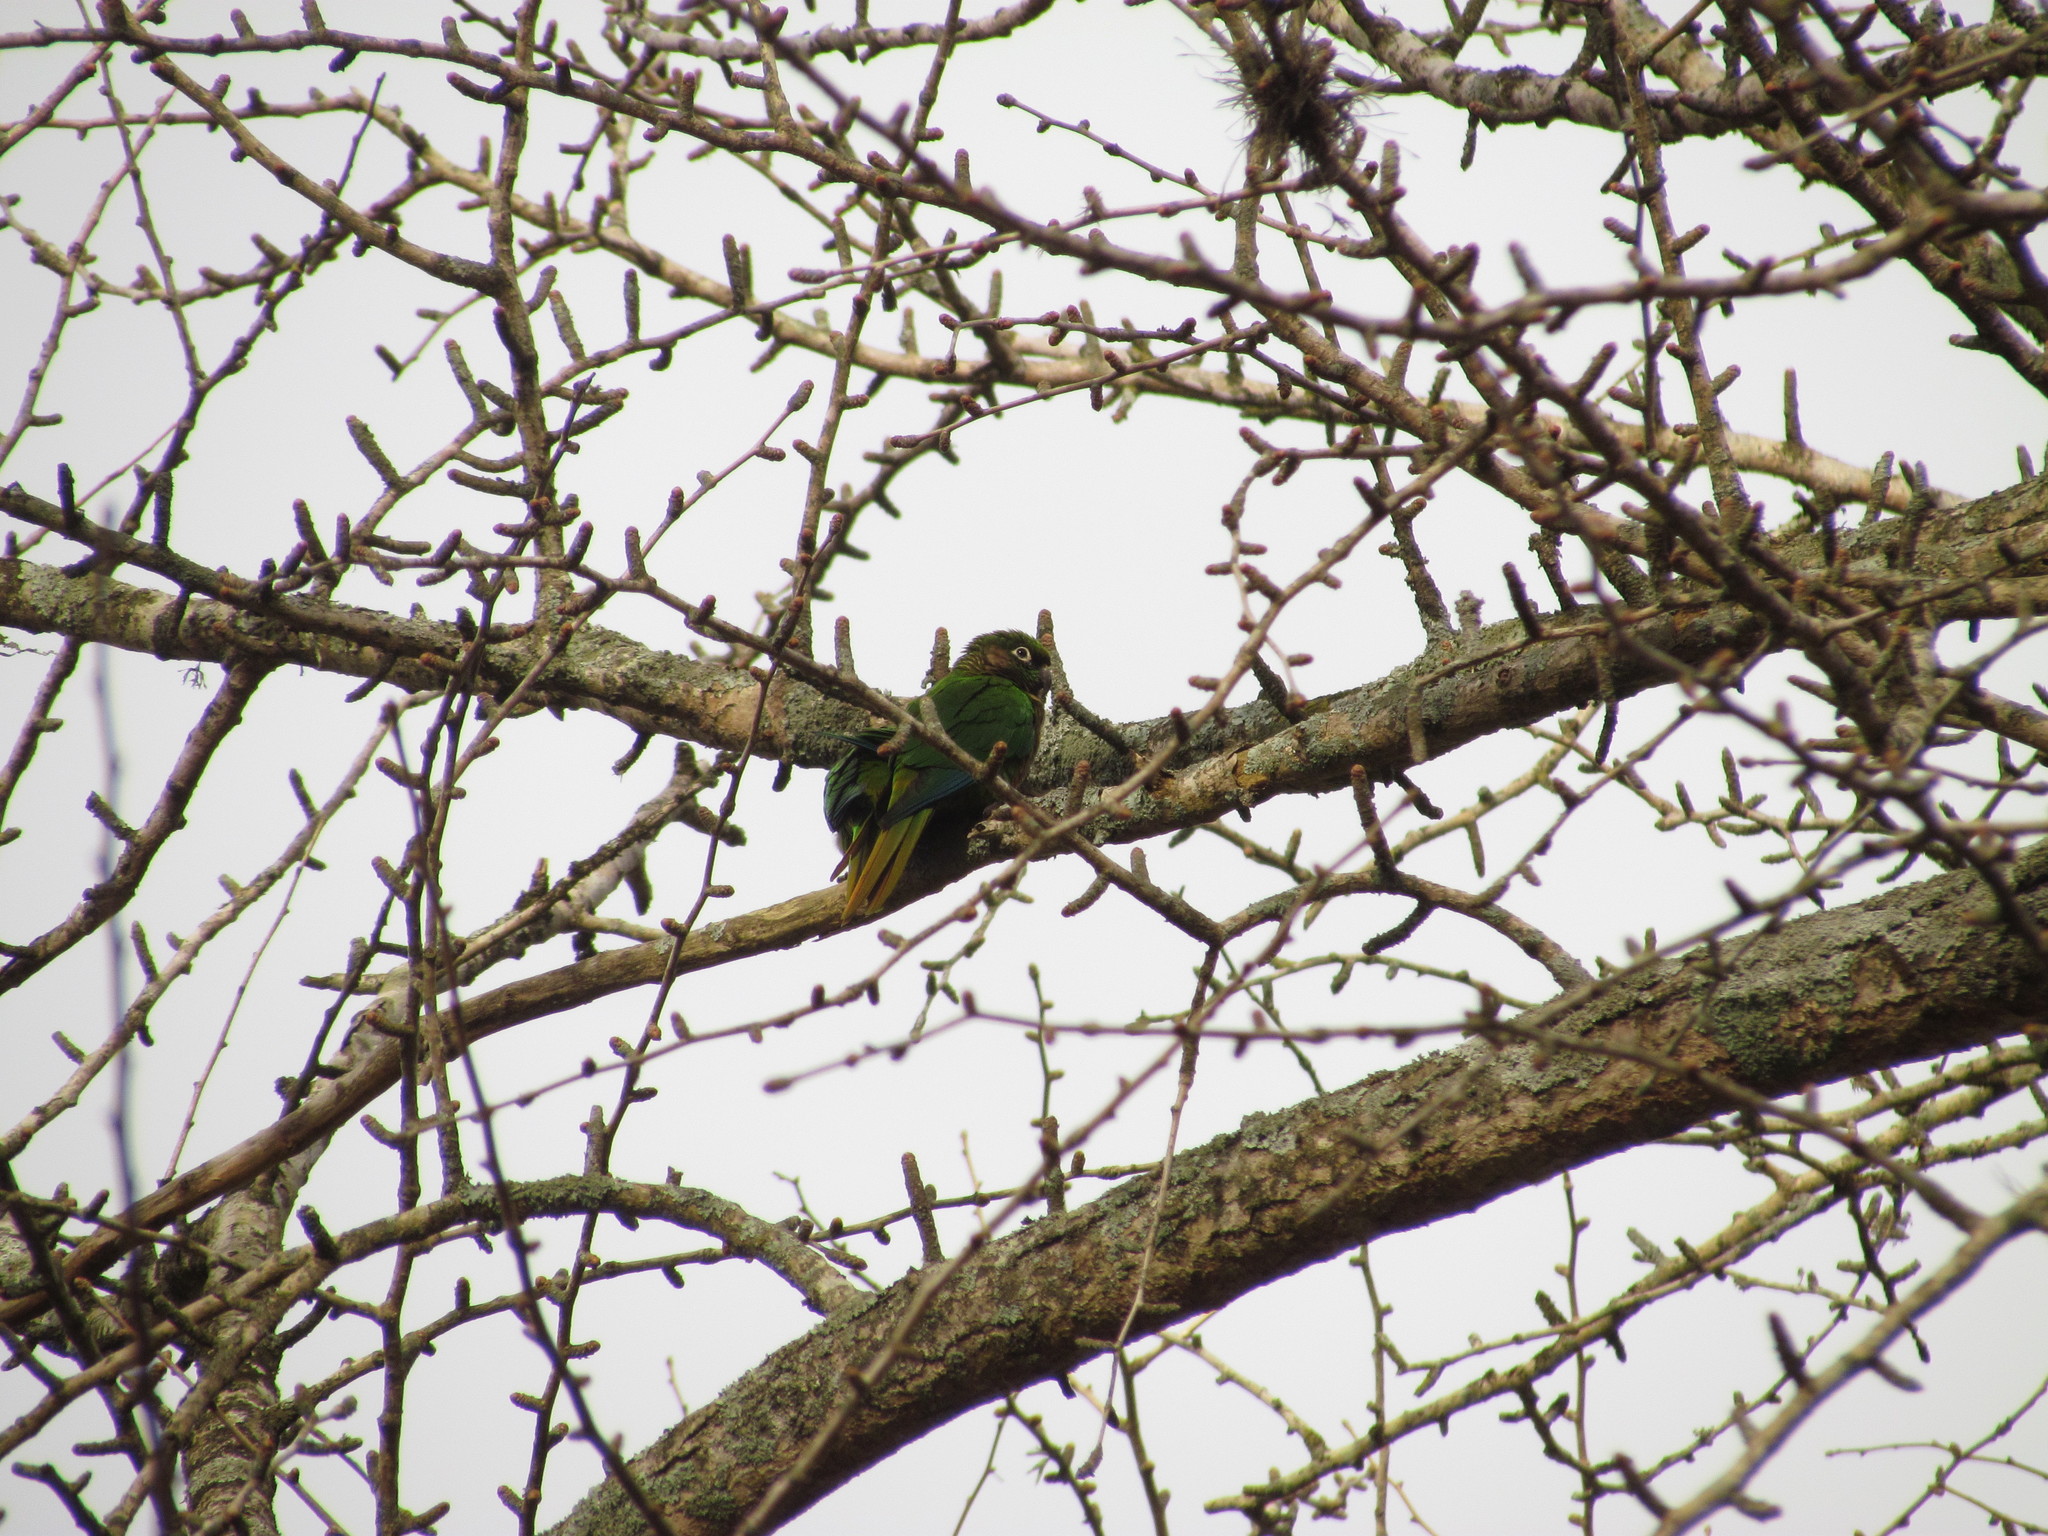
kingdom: Animalia
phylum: Chordata
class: Aves
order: Psittaciformes
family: Psittacidae
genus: Pyrrhura
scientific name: Pyrrhura frontalis
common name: Maroon-bellied parakeet
